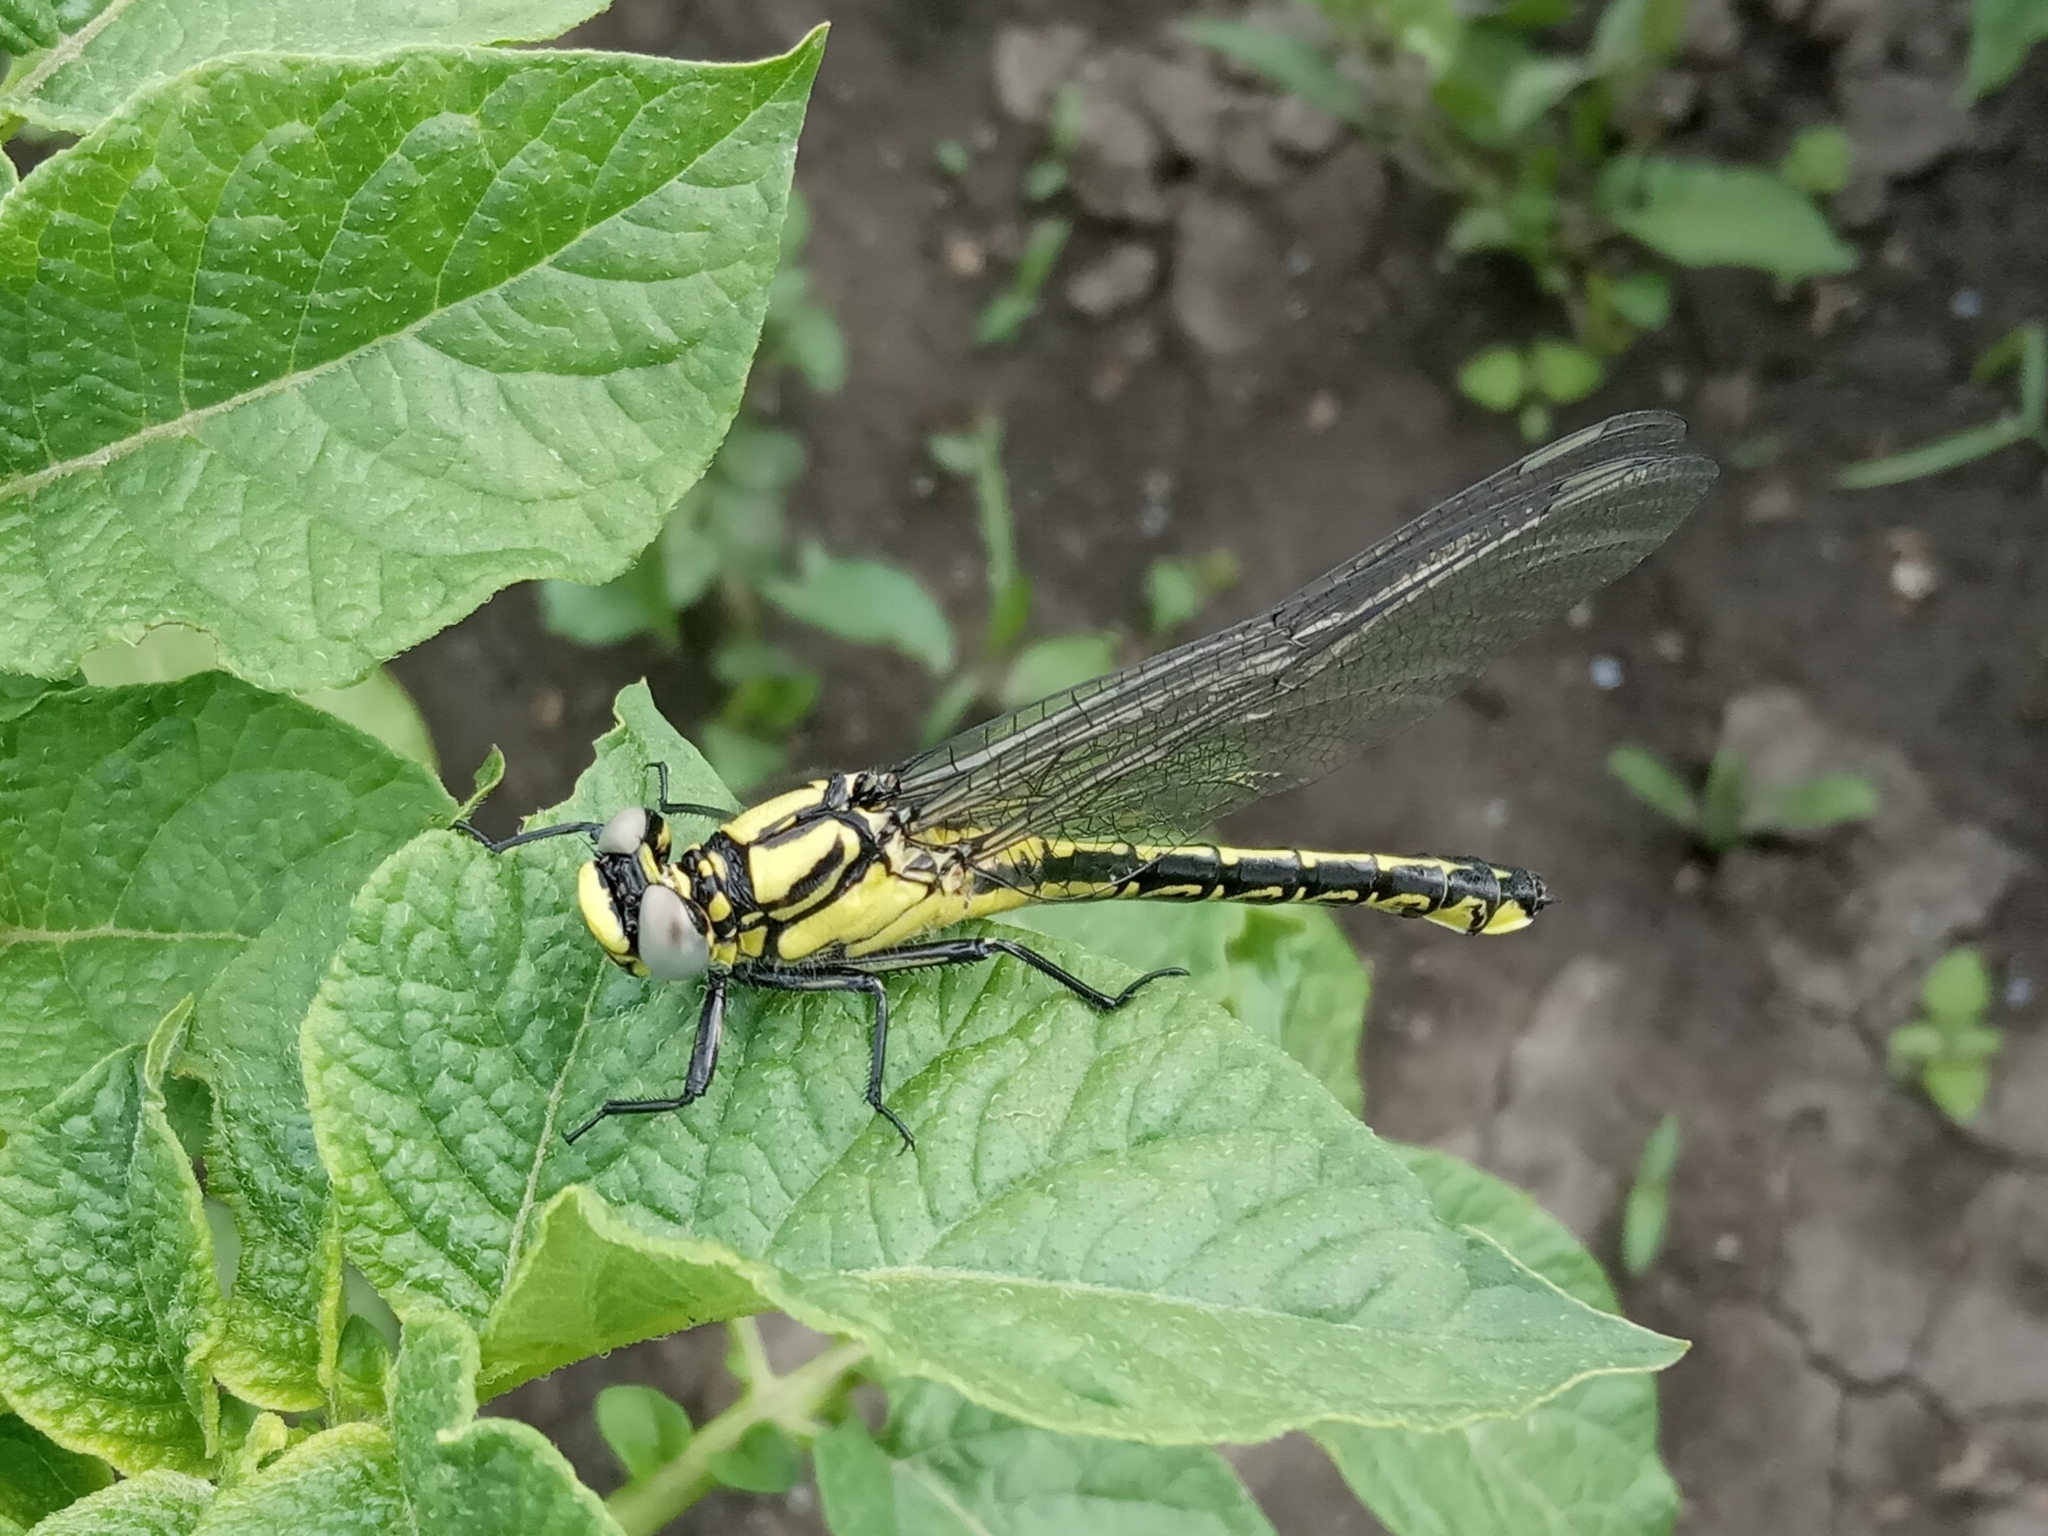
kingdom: Animalia
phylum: Arthropoda
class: Insecta
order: Odonata
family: Gomphidae
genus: Gomphus
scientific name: Gomphus schneiderii
